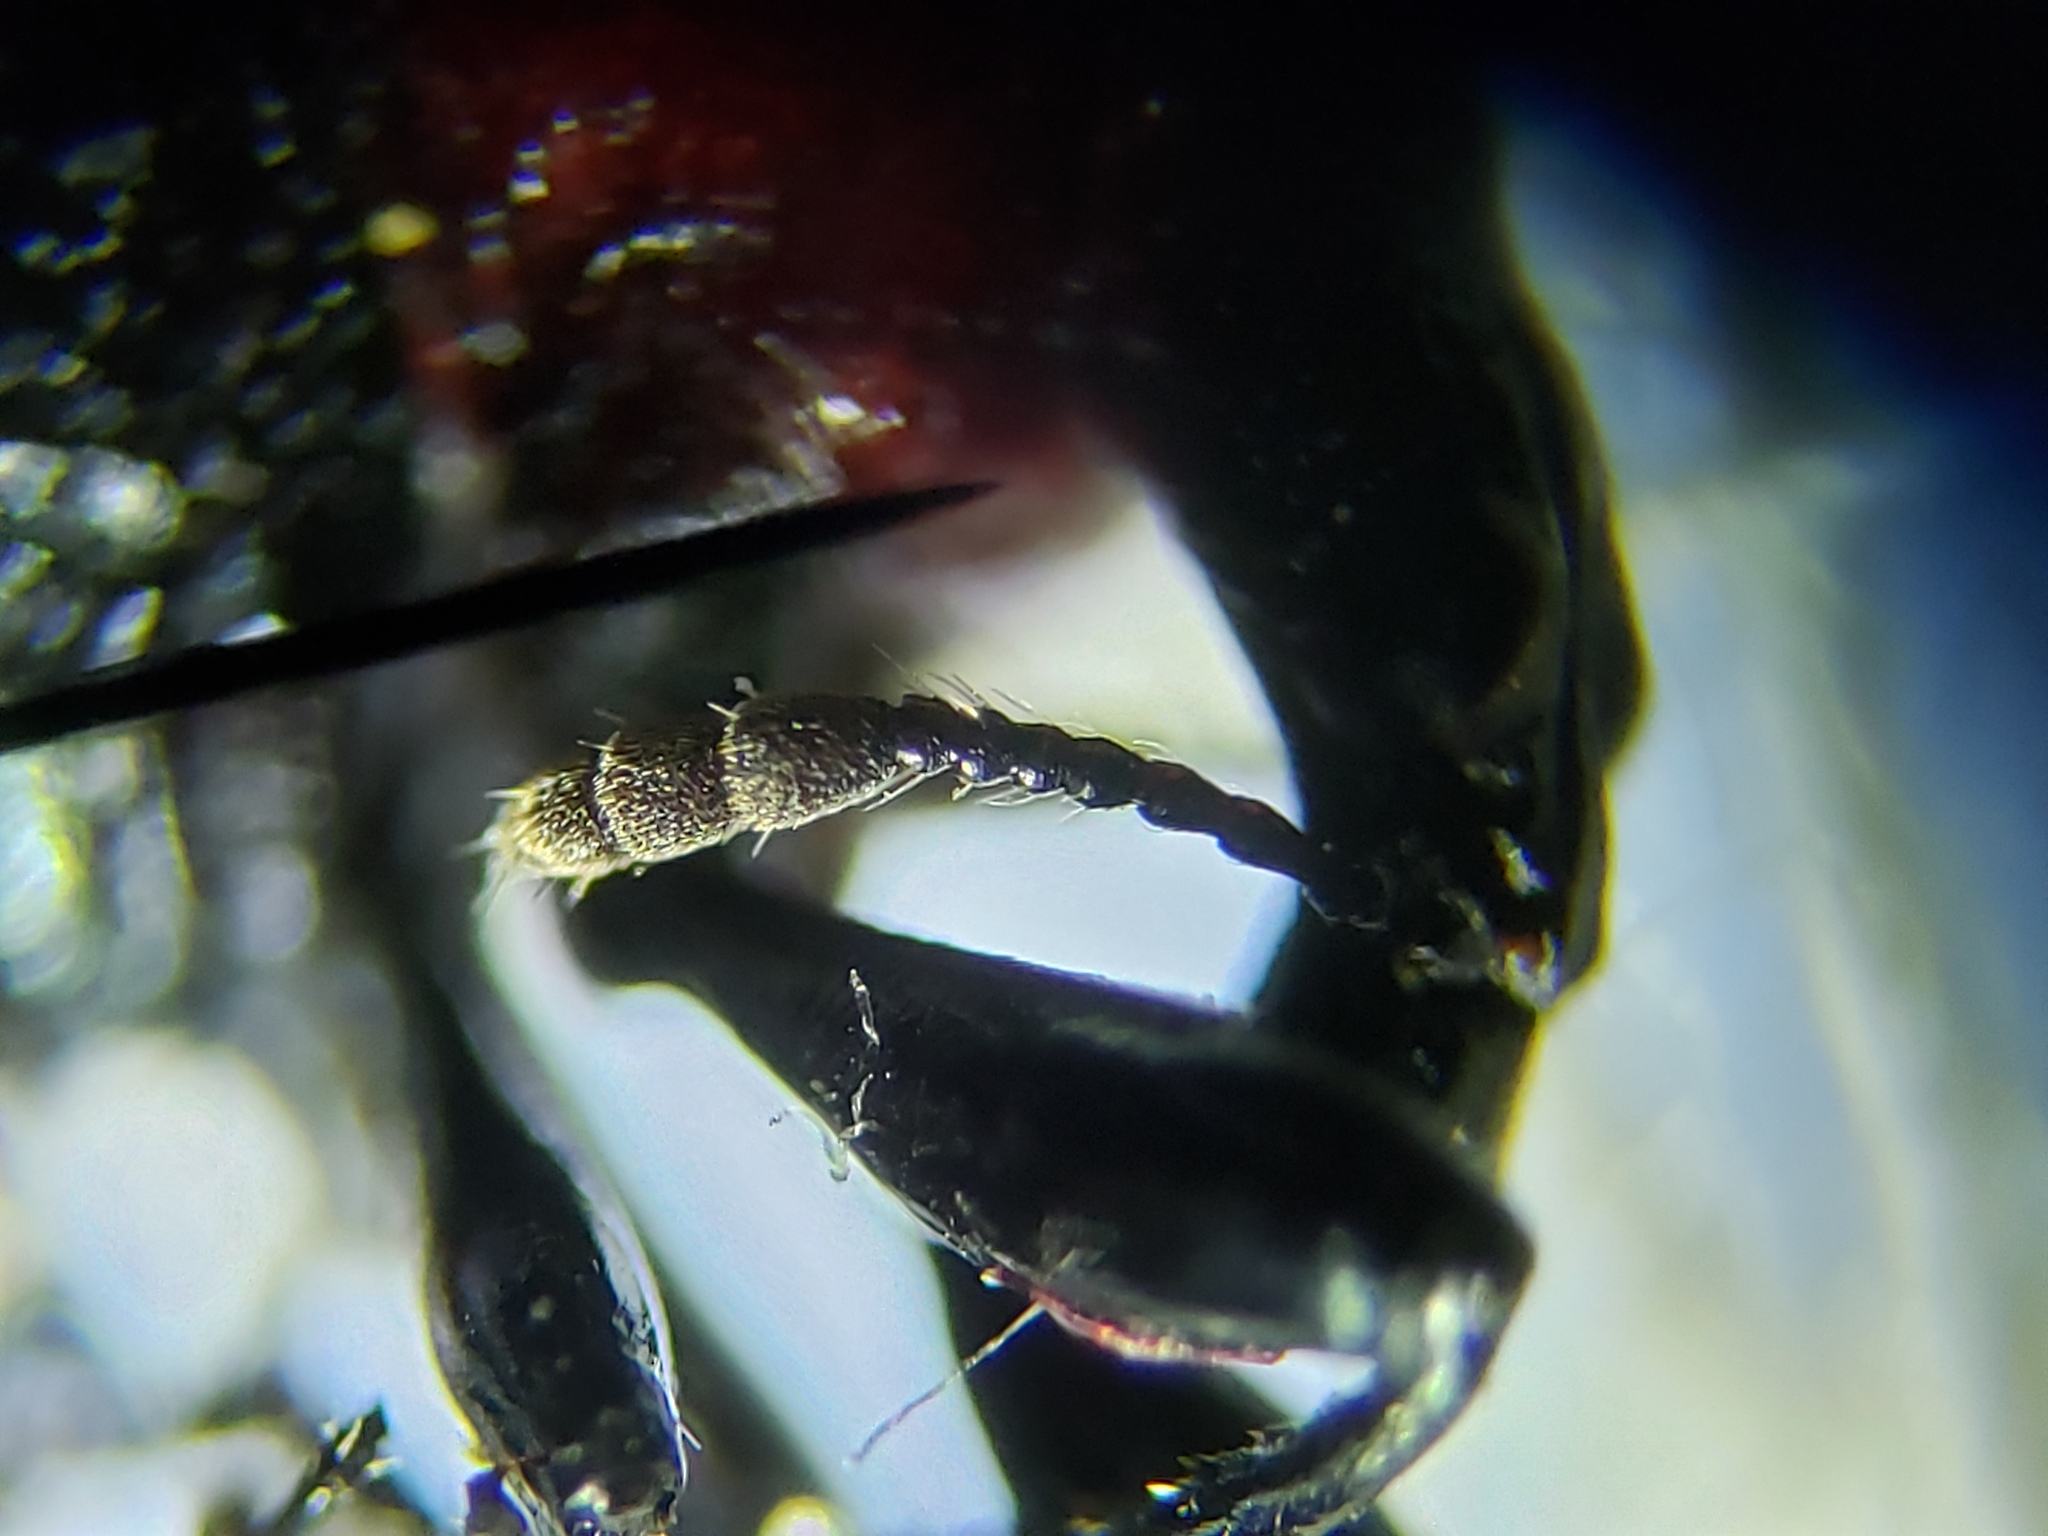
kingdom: Animalia
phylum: Arthropoda
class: Insecta
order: Coleoptera
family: Attelabidae
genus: Homoeolabus
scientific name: Homoeolabus analis
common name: Oak leaf rolling weevil
